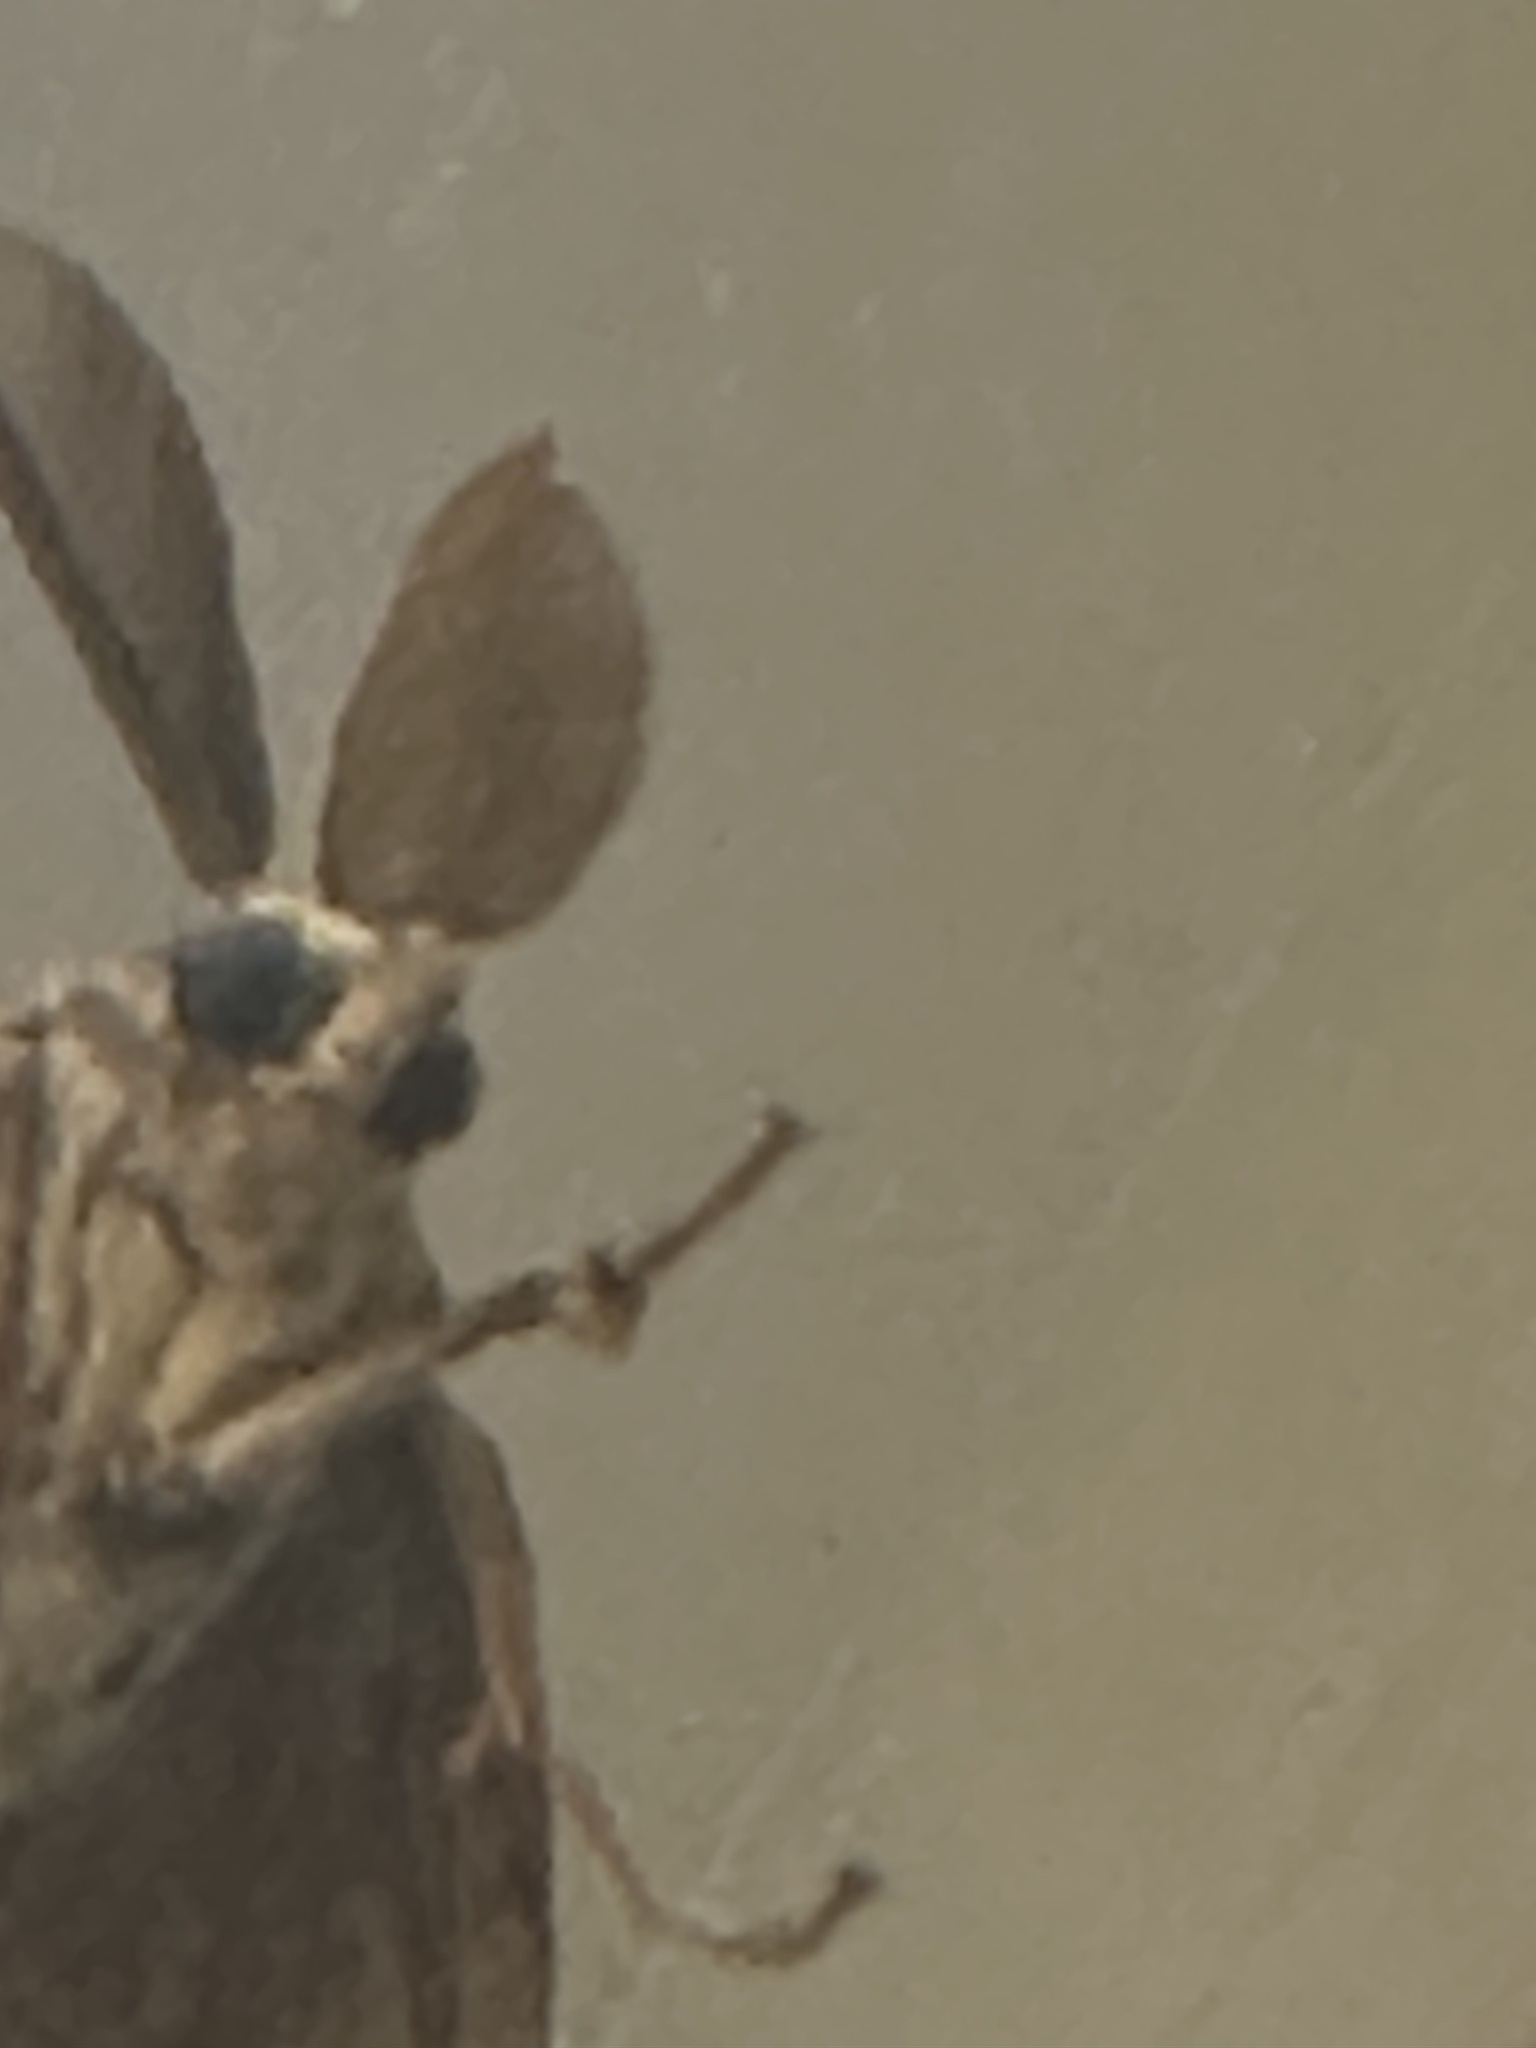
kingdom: Animalia
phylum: Arthropoda
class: Insecta
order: Lepidoptera
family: Erebidae
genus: Lymantria
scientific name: Lymantria dispar
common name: Gypsy moth
